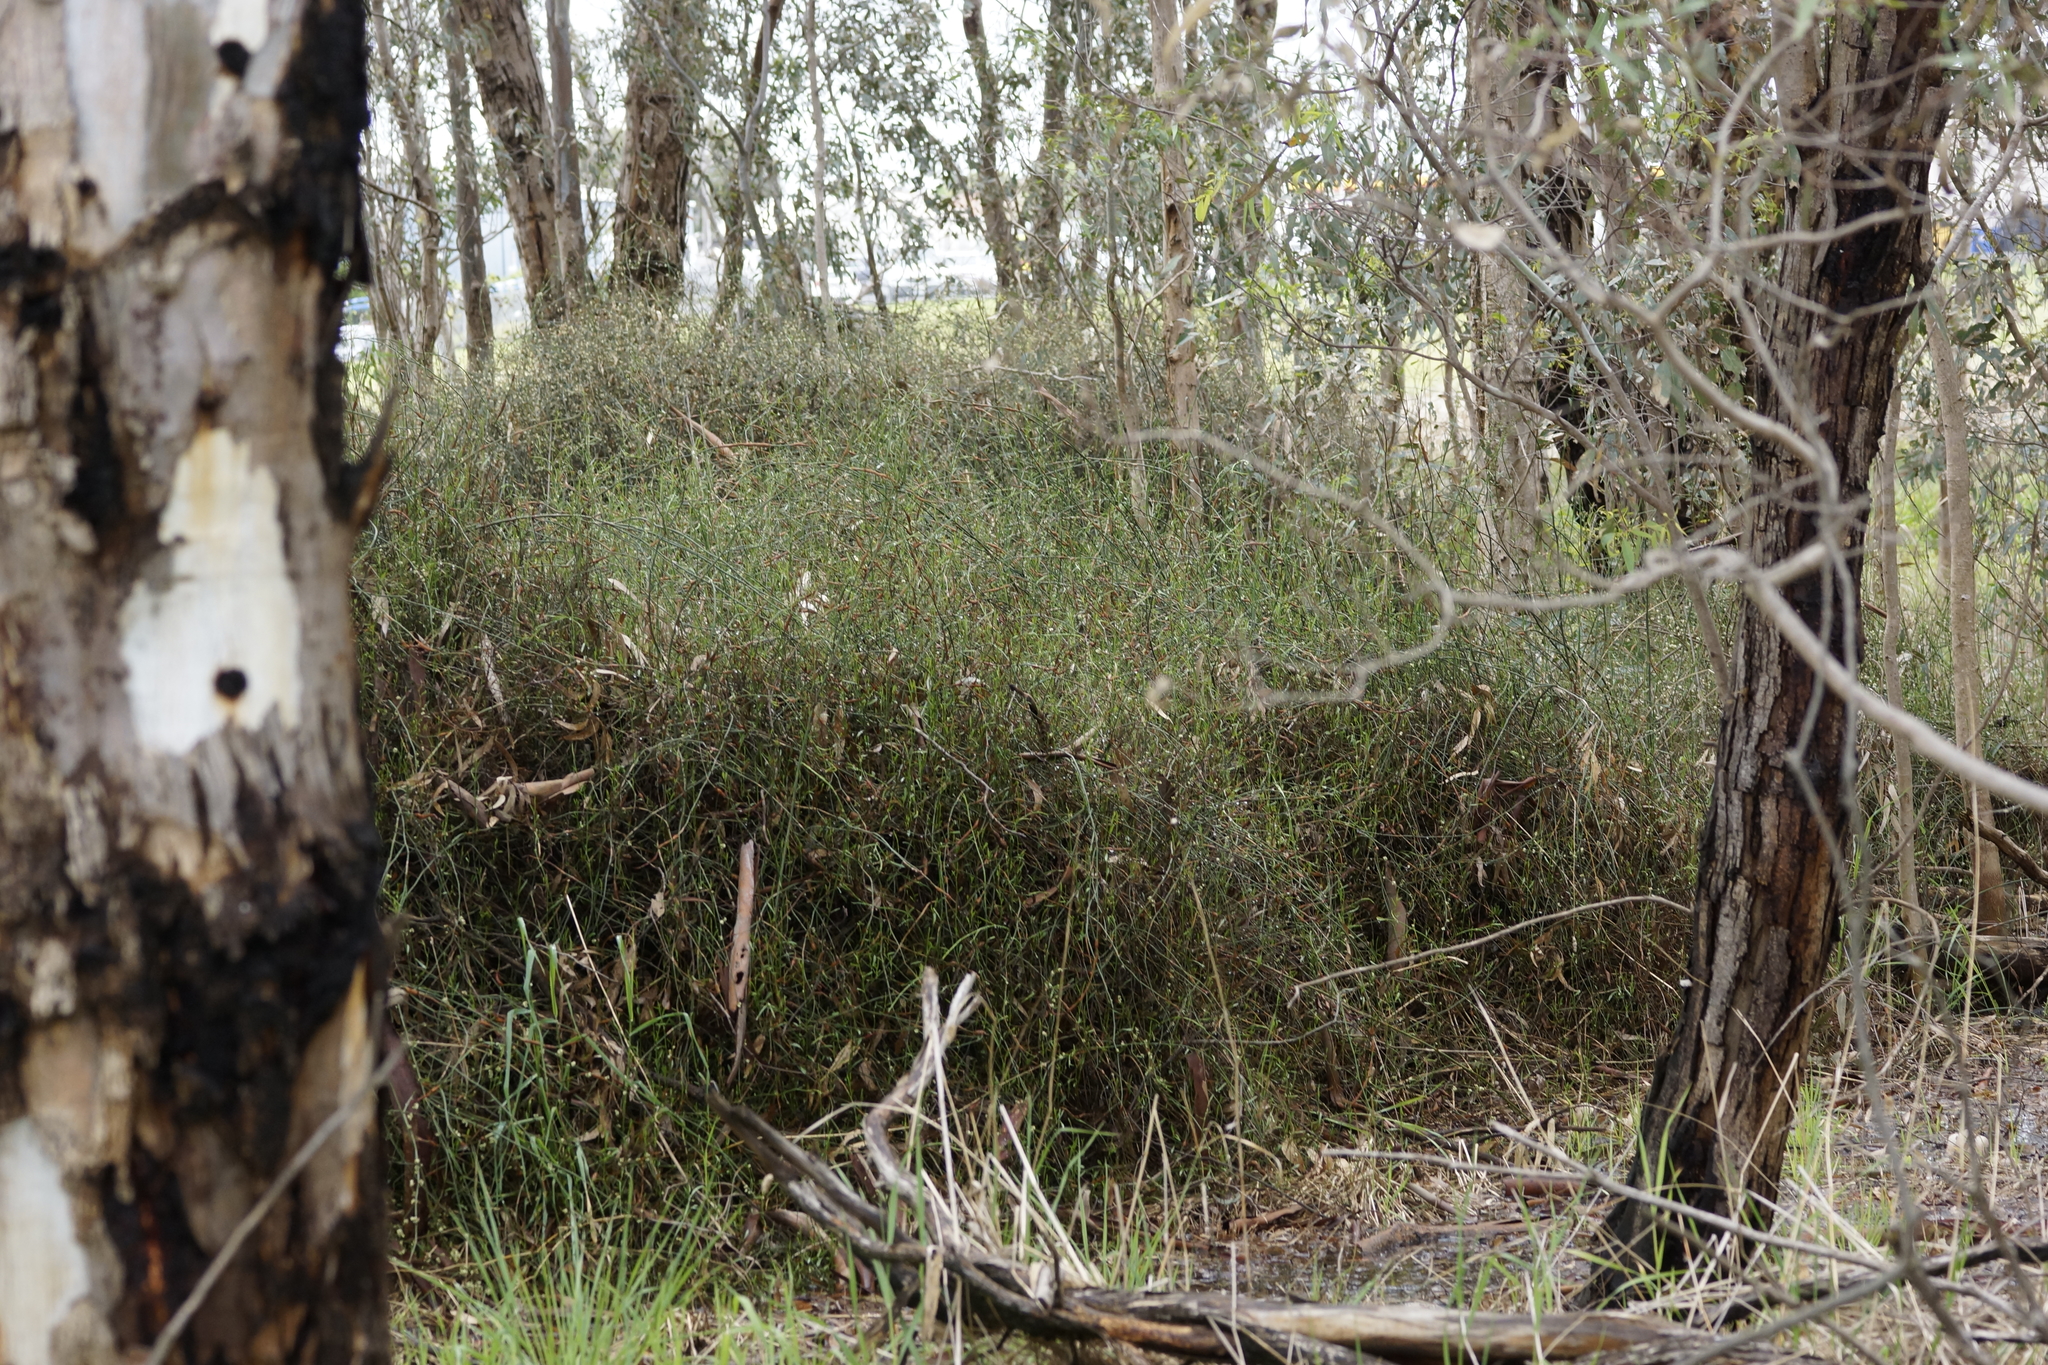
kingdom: Plantae
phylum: Tracheophyta
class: Magnoliopsida
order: Caryophyllales
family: Polygonaceae
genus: Duma
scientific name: Duma florulenta
